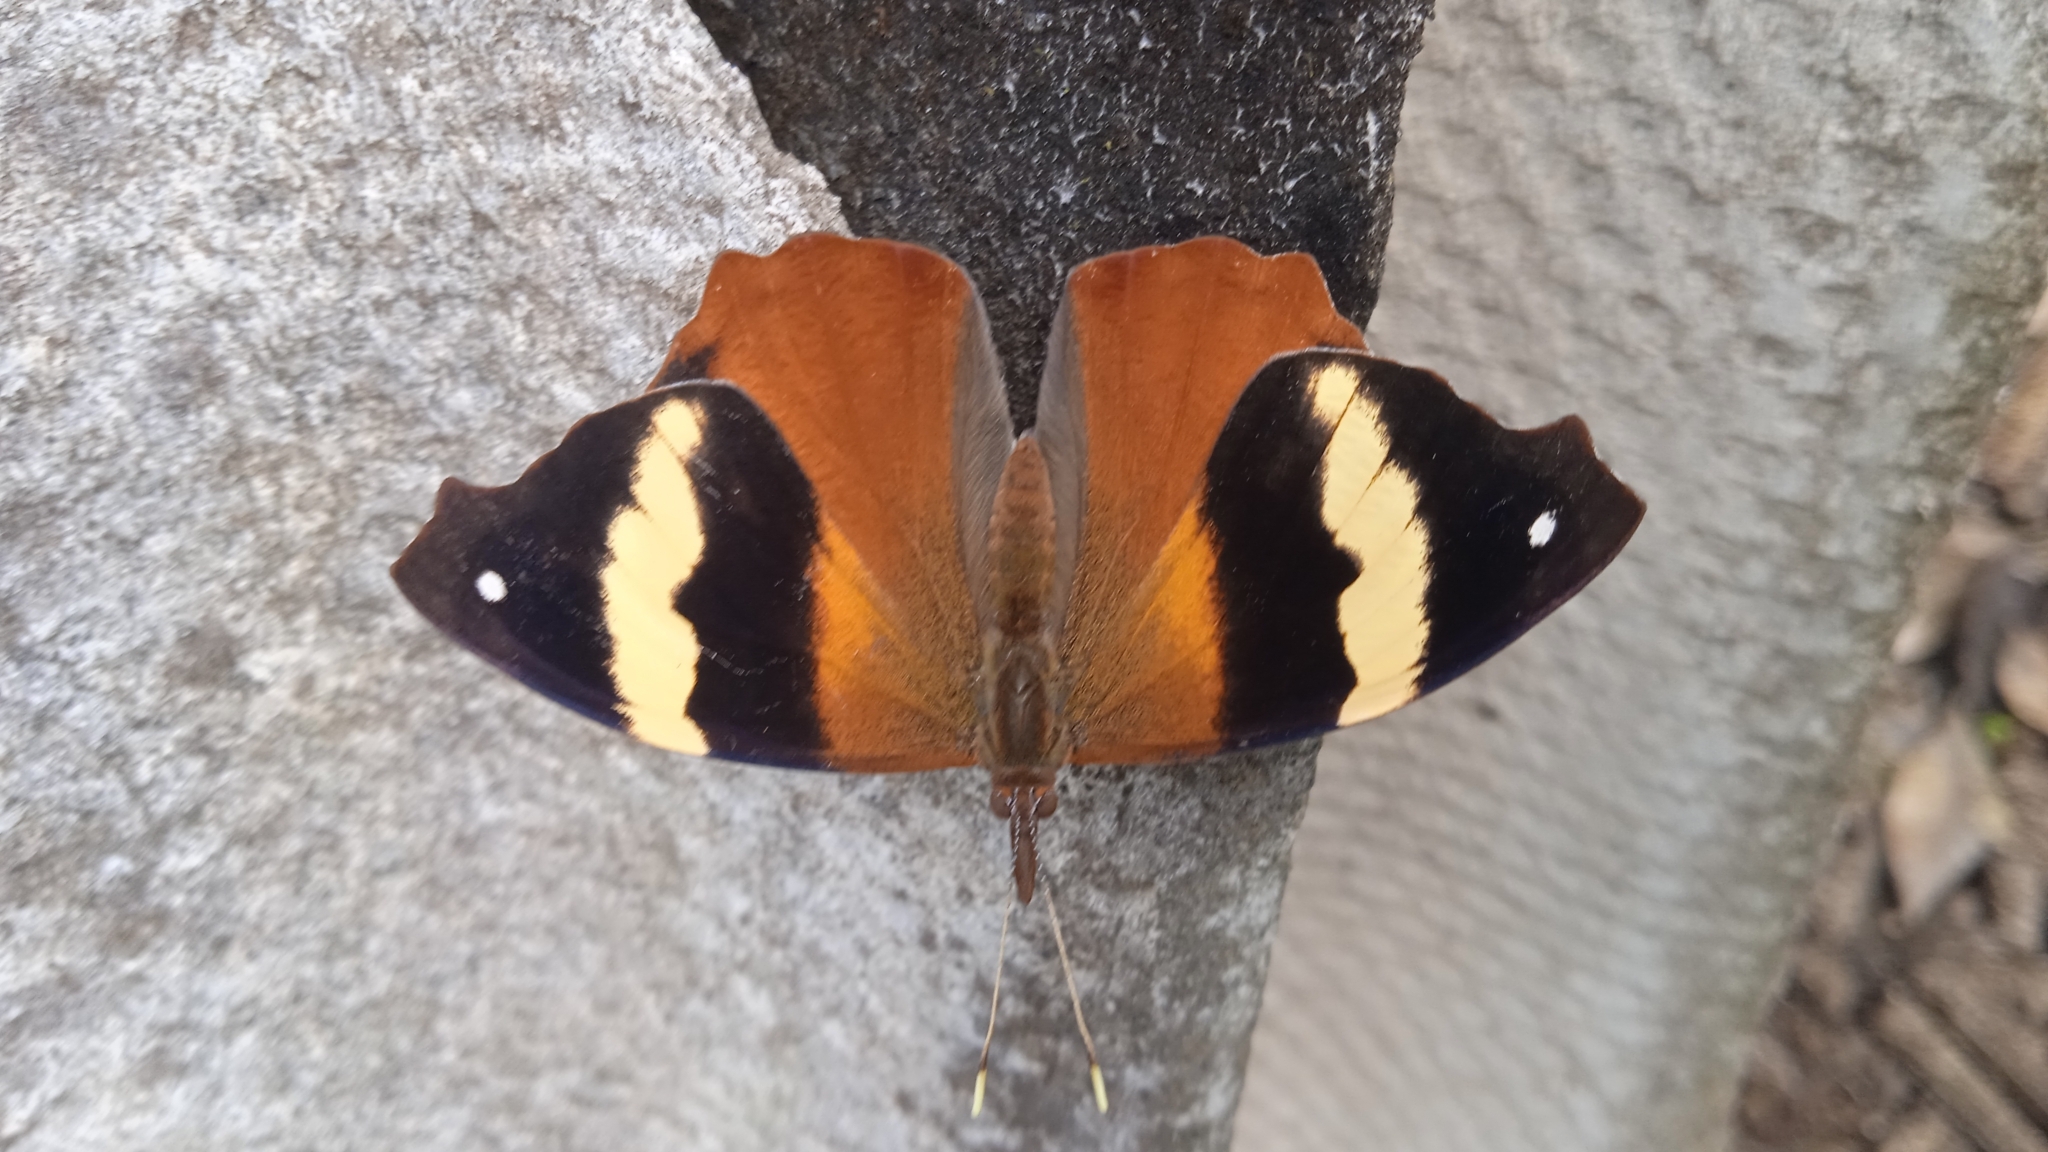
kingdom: Animalia
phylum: Arthropoda
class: Insecta
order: Lepidoptera
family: Nymphalidae
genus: Epiphile
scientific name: Epiphile adrasta
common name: Common banner
